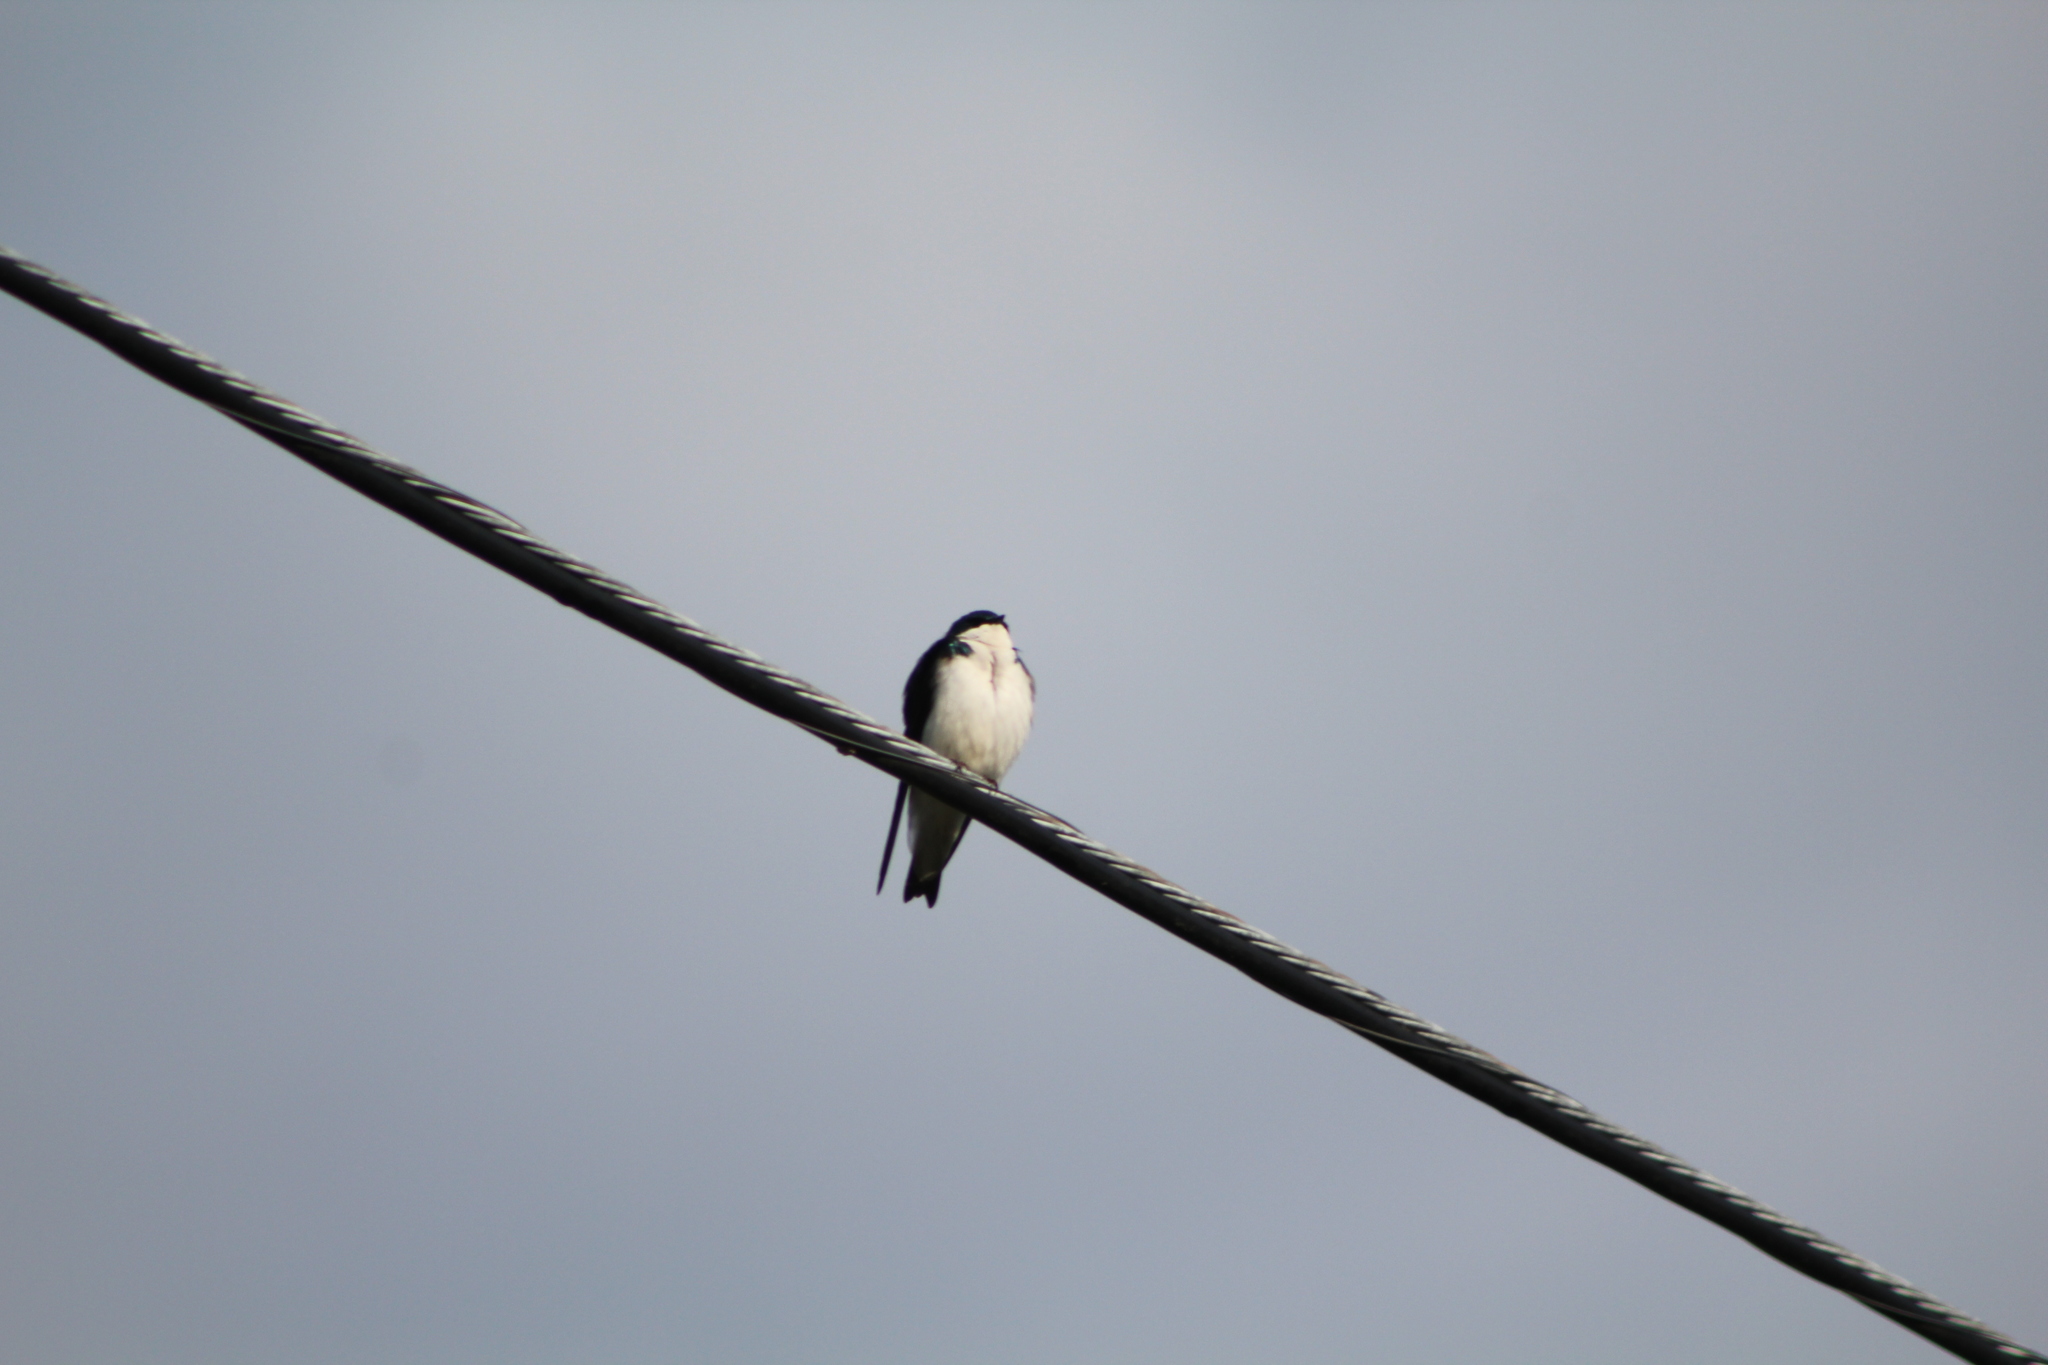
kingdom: Animalia
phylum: Chordata
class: Aves
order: Passeriformes
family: Hirundinidae
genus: Tachycineta
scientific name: Tachycineta bicolor
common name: Tree swallow
